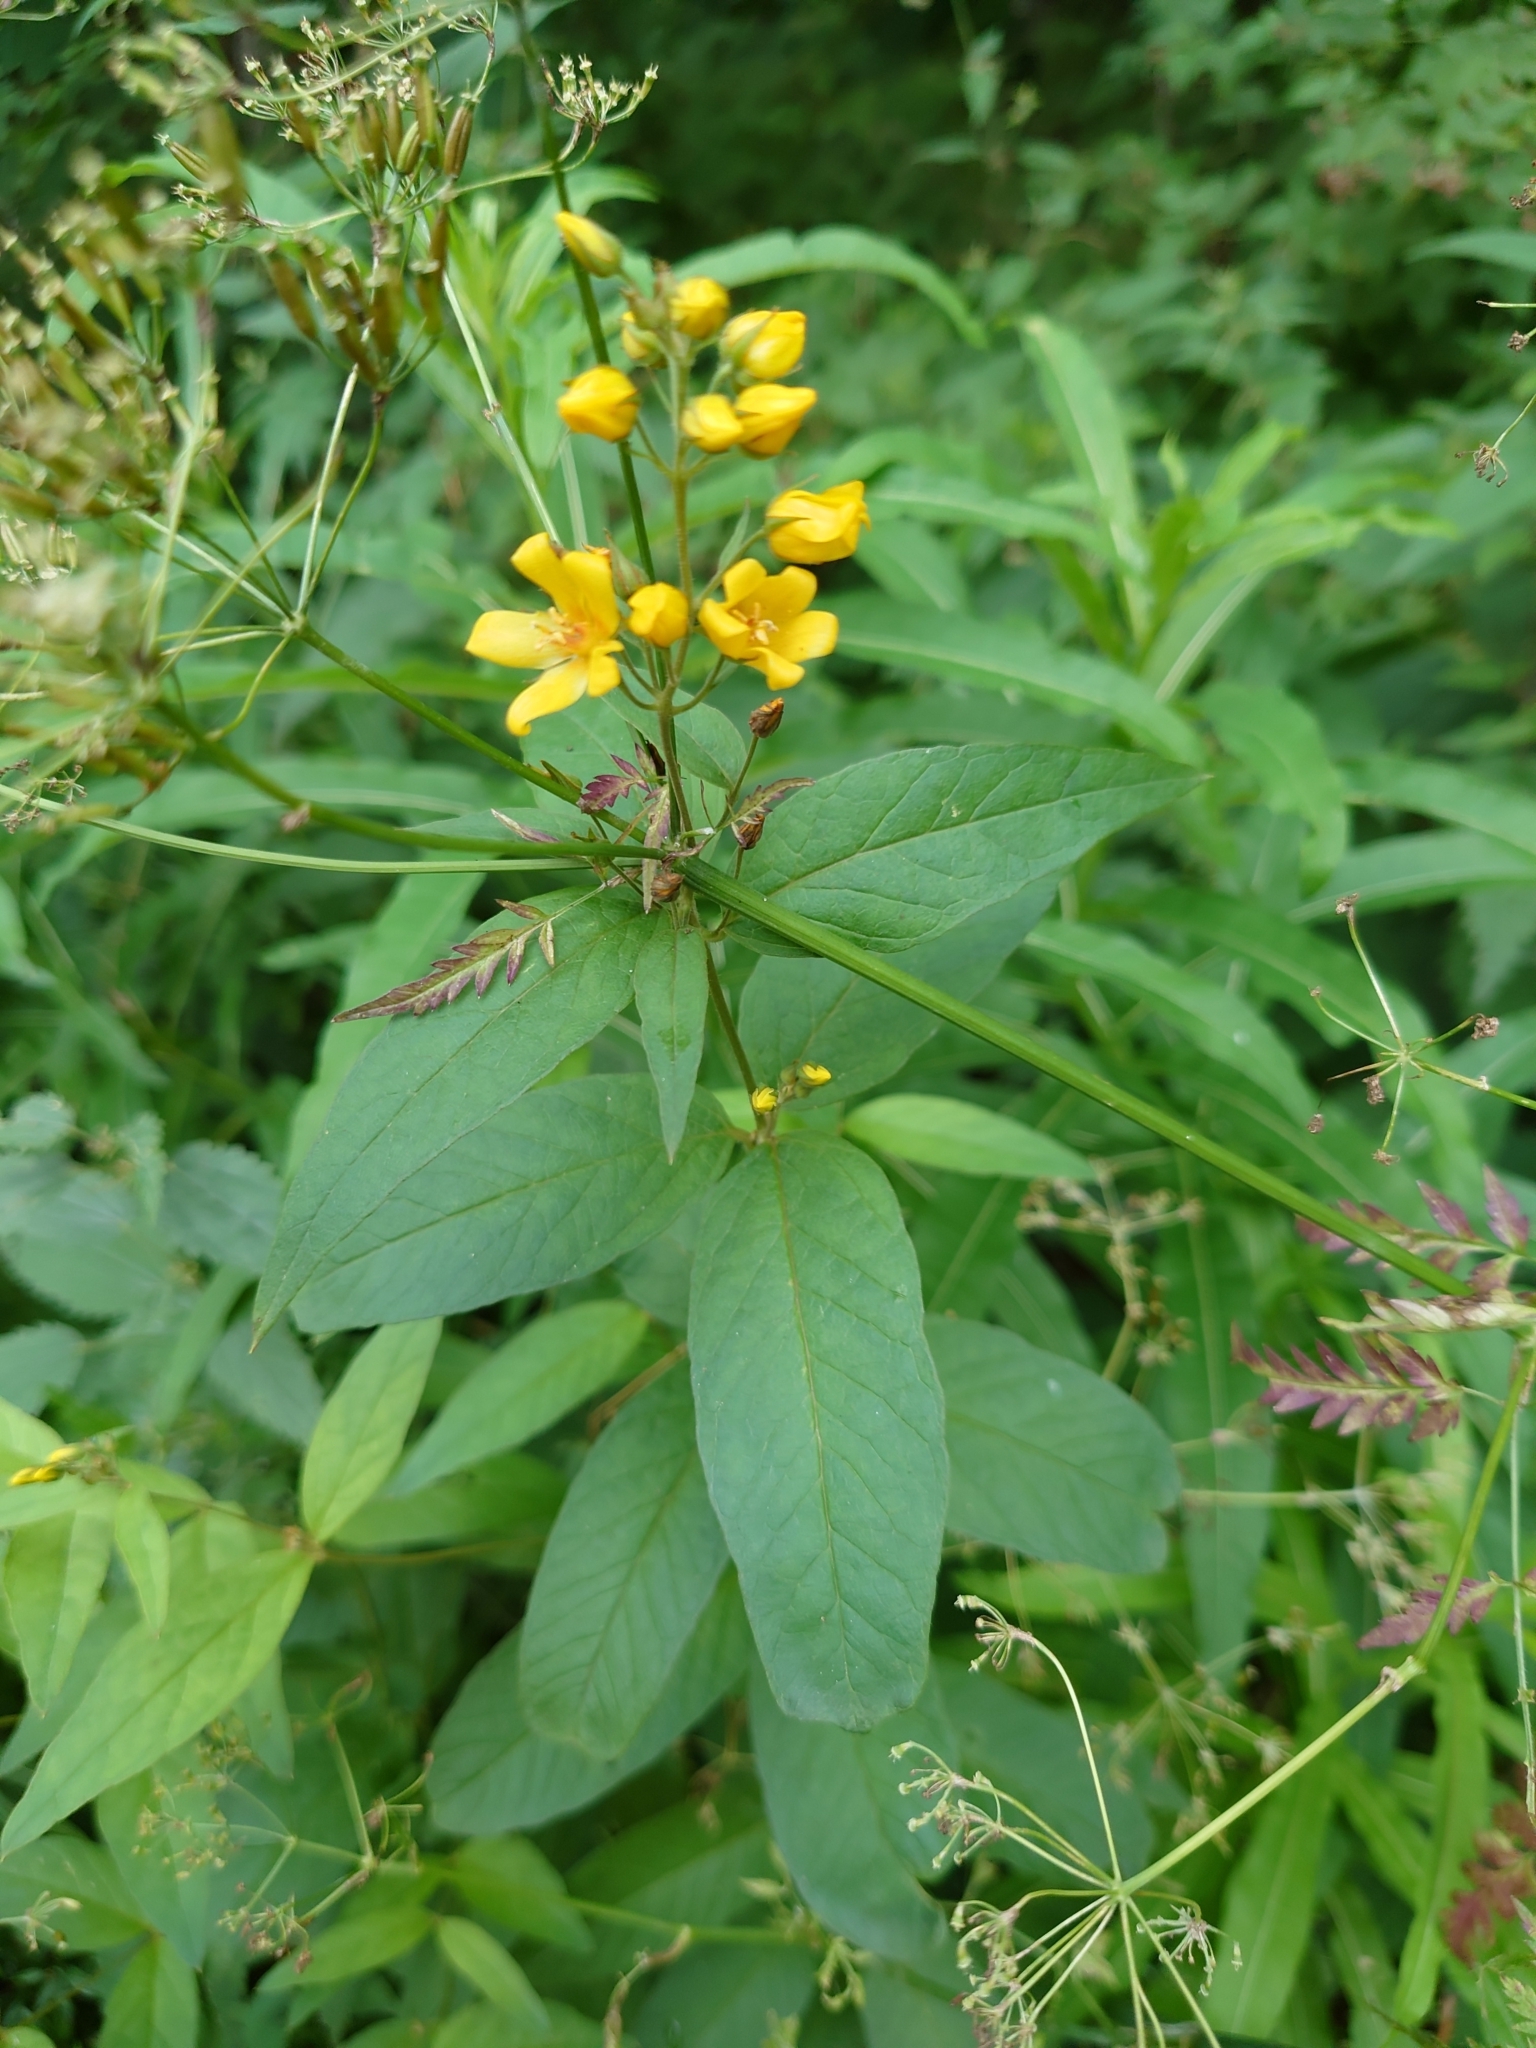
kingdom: Plantae
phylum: Tracheophyta
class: Magnoliopsida
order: Ericales
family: Primulaceae
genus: Lysimachia
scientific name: Lysimachia vulgaris
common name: Yellow loosestrife
